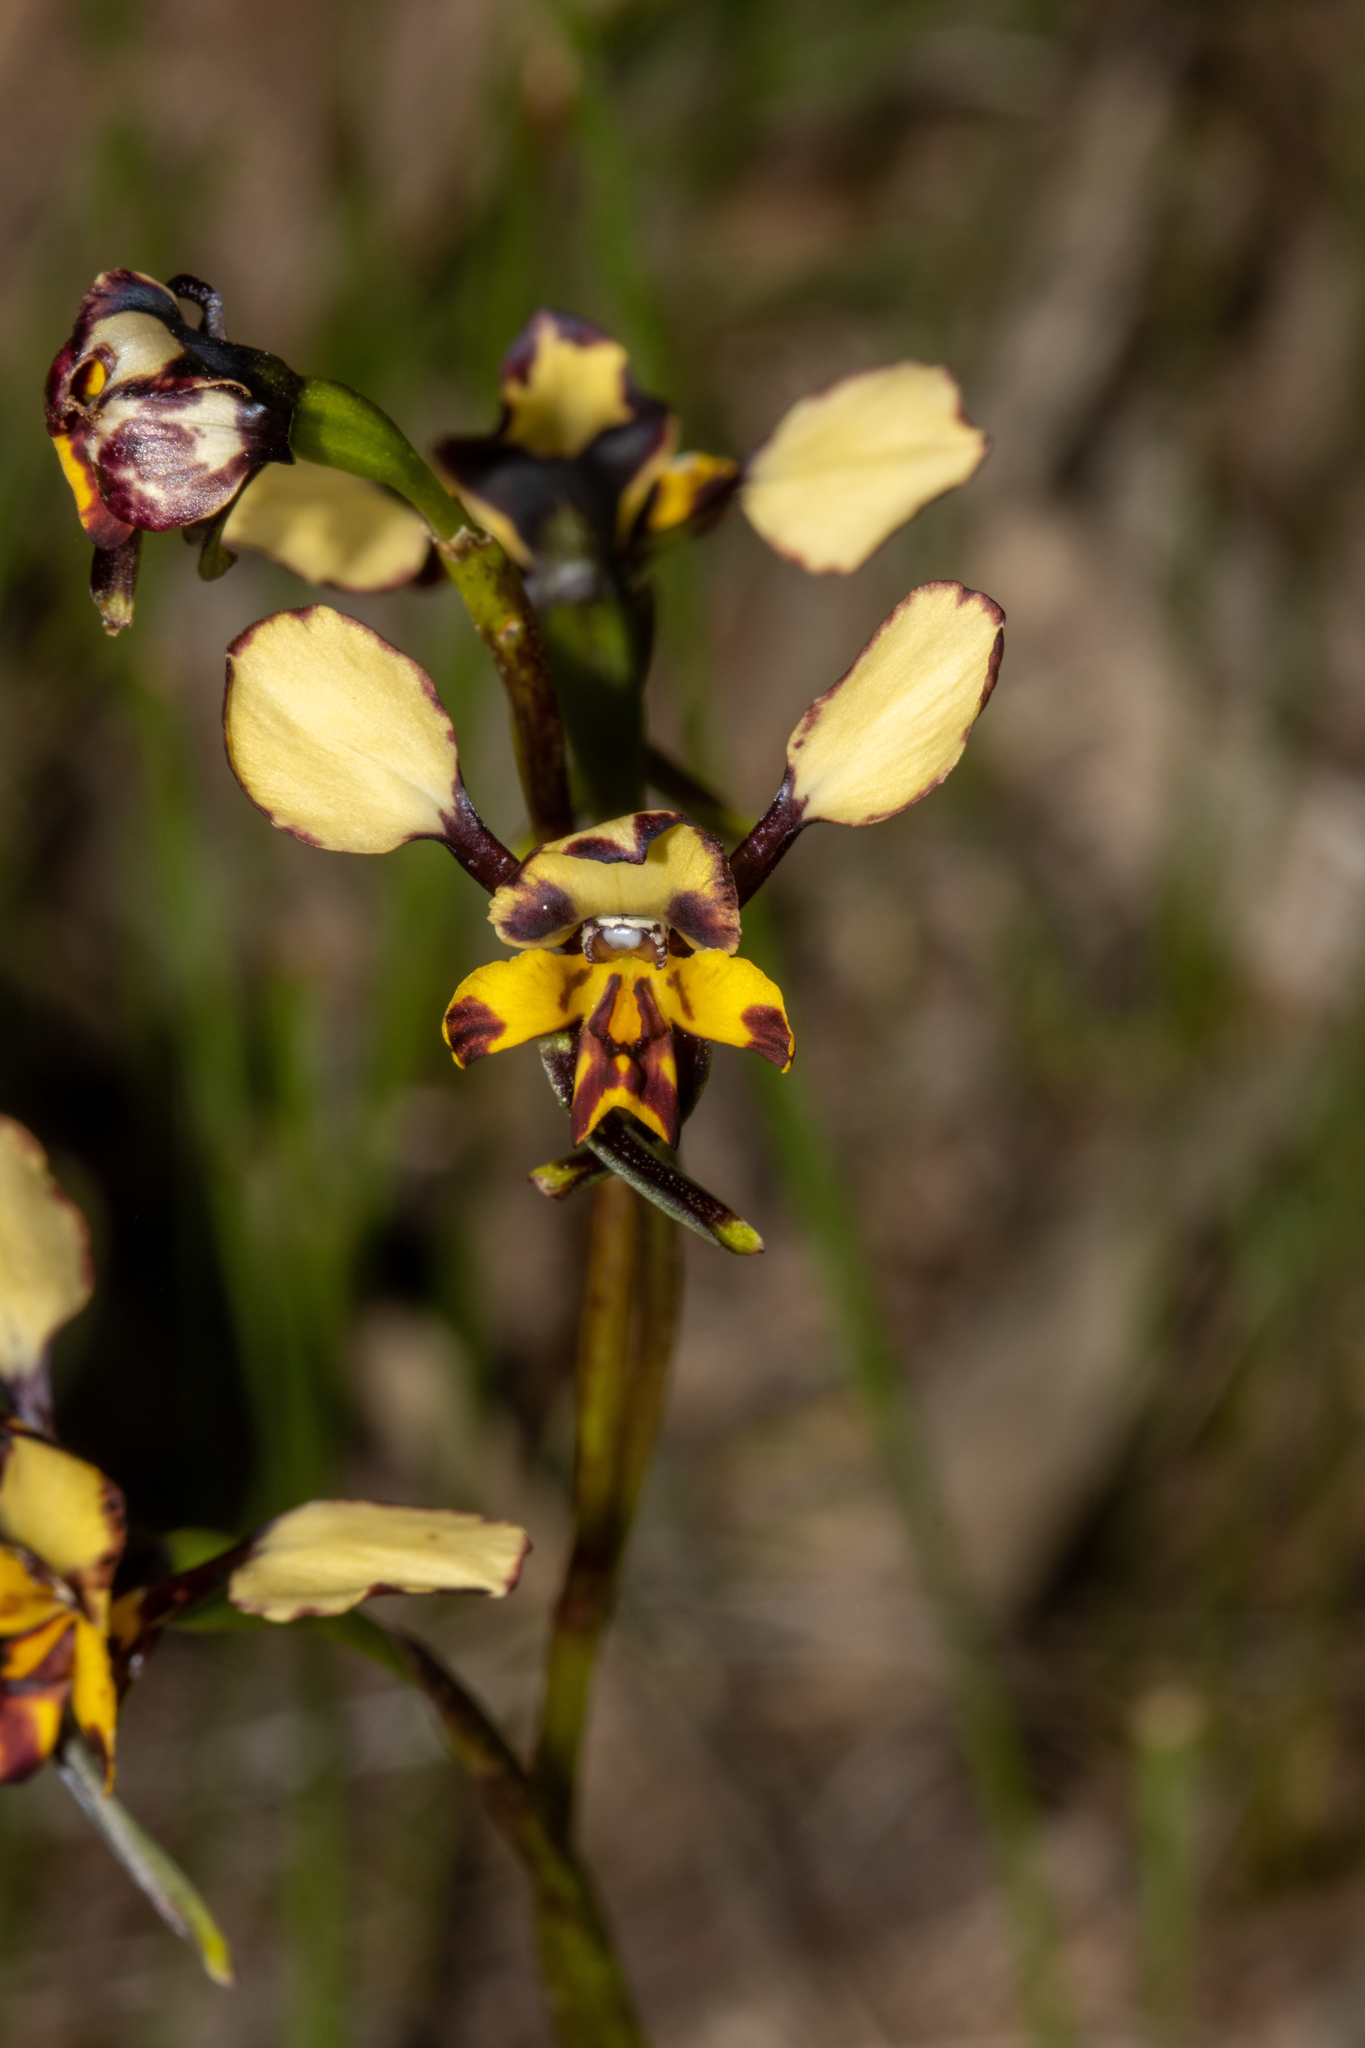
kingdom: Plantae
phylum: Tracheophyta
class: Liliopsida
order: Asparagales
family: Orchidaceae
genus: Diuris
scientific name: Diuris pardina
